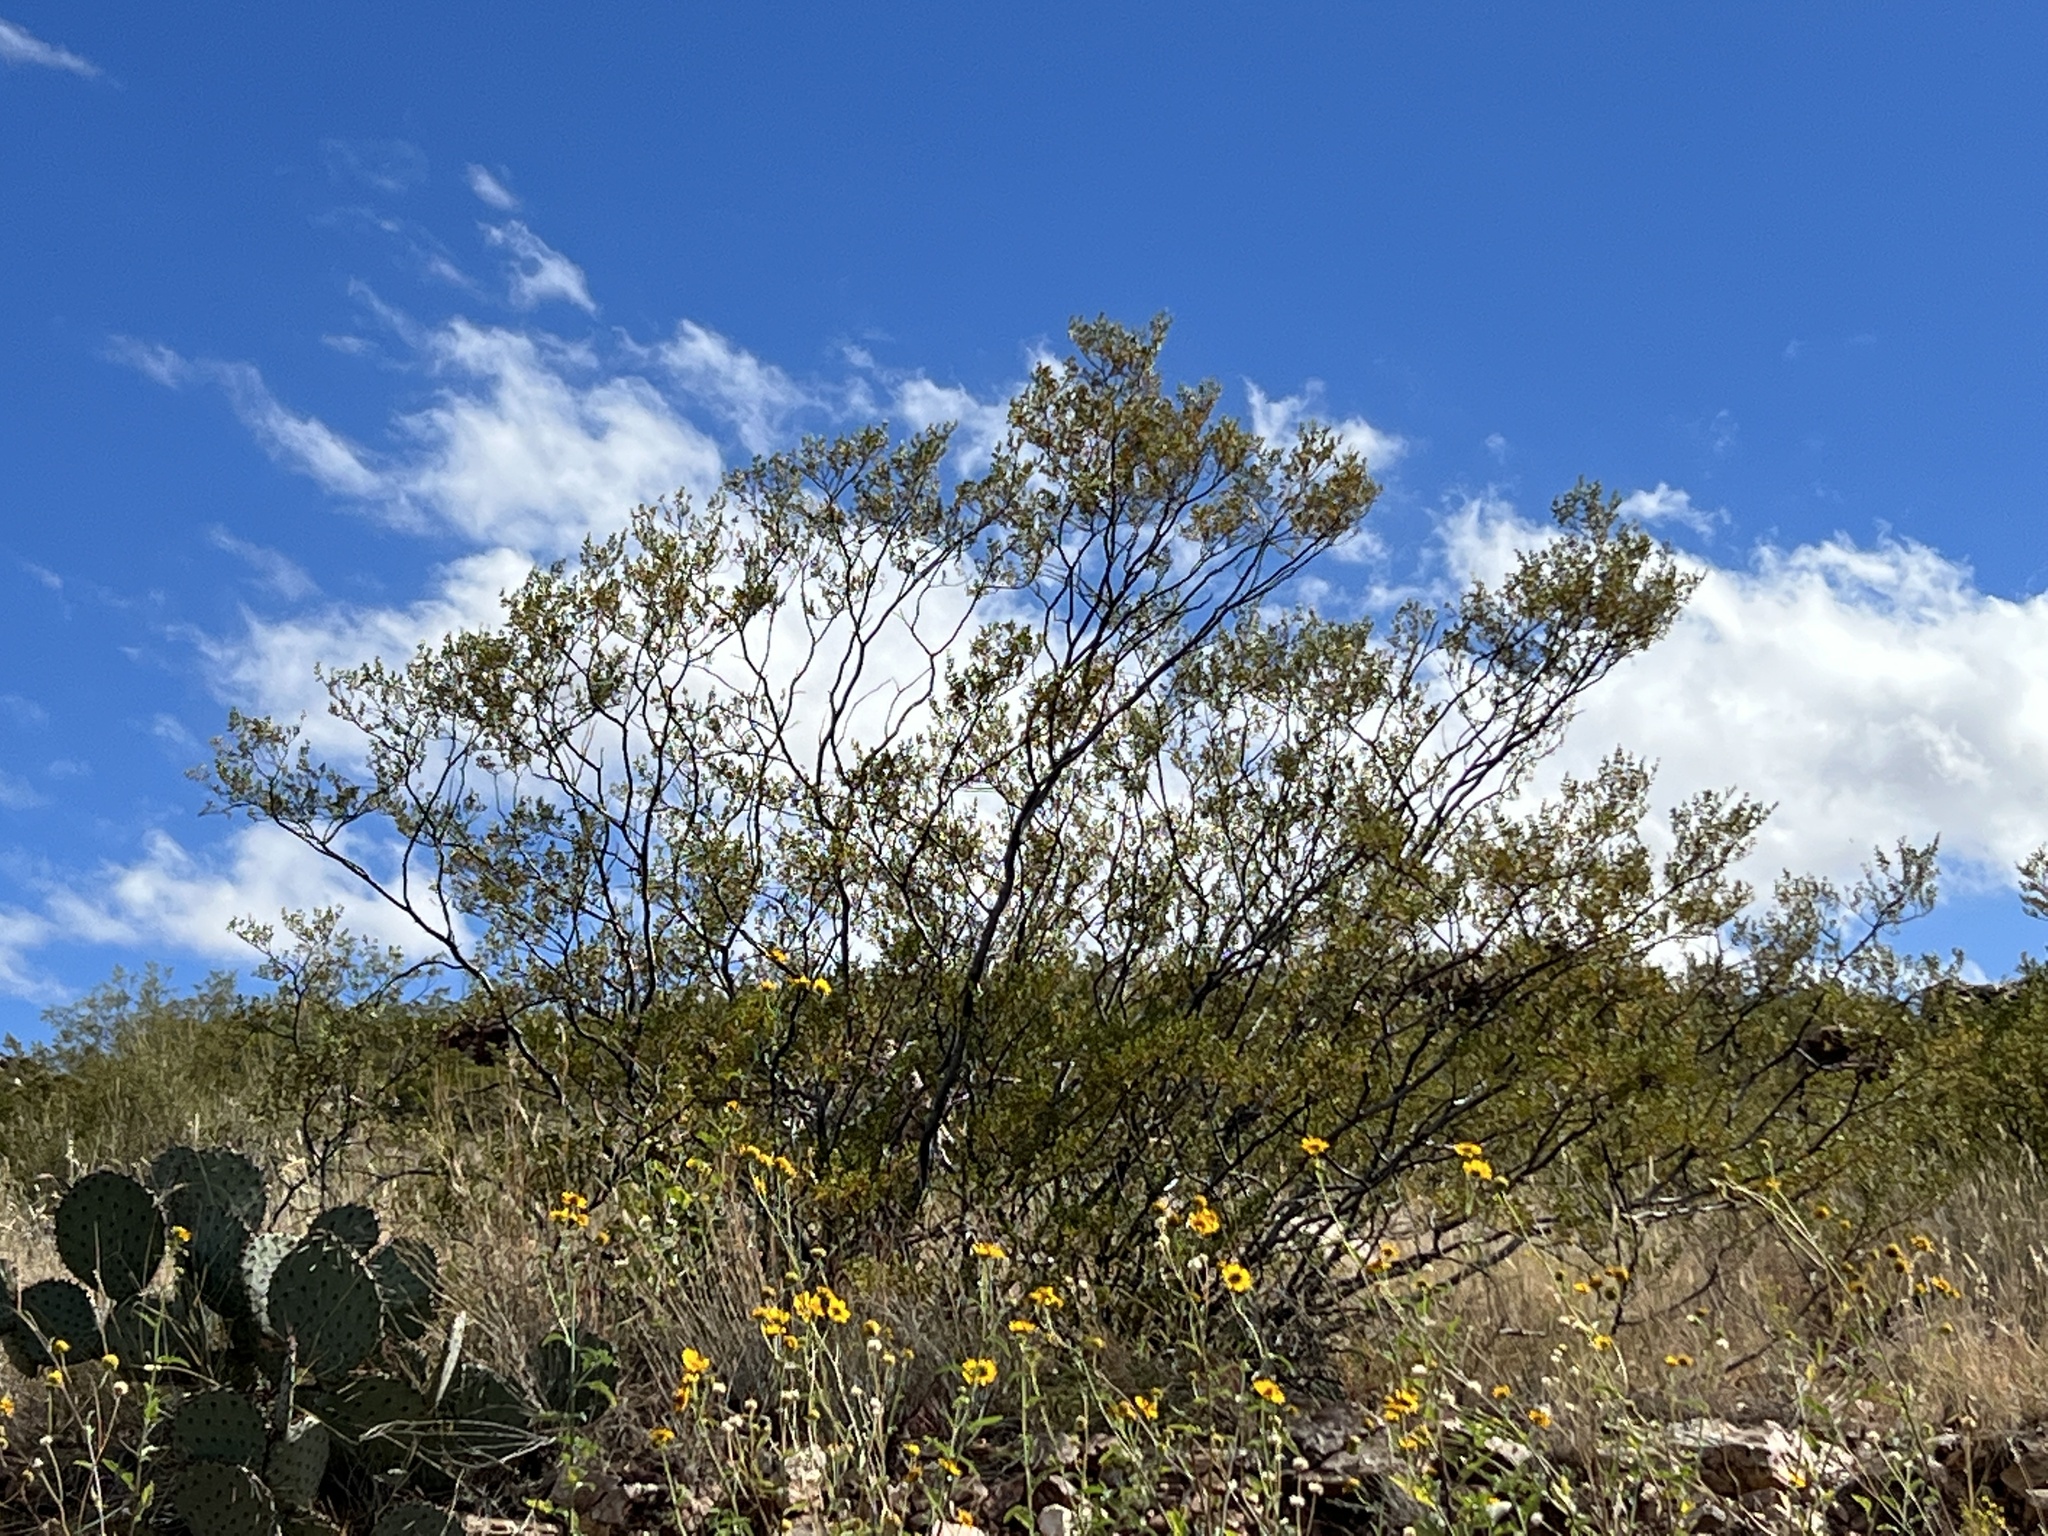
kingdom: Plantae
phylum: Tracheophyta
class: Magnoliopsida
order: Zygophyllales
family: Zygophyllaceae
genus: Larrea
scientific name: Larrea tridentata
